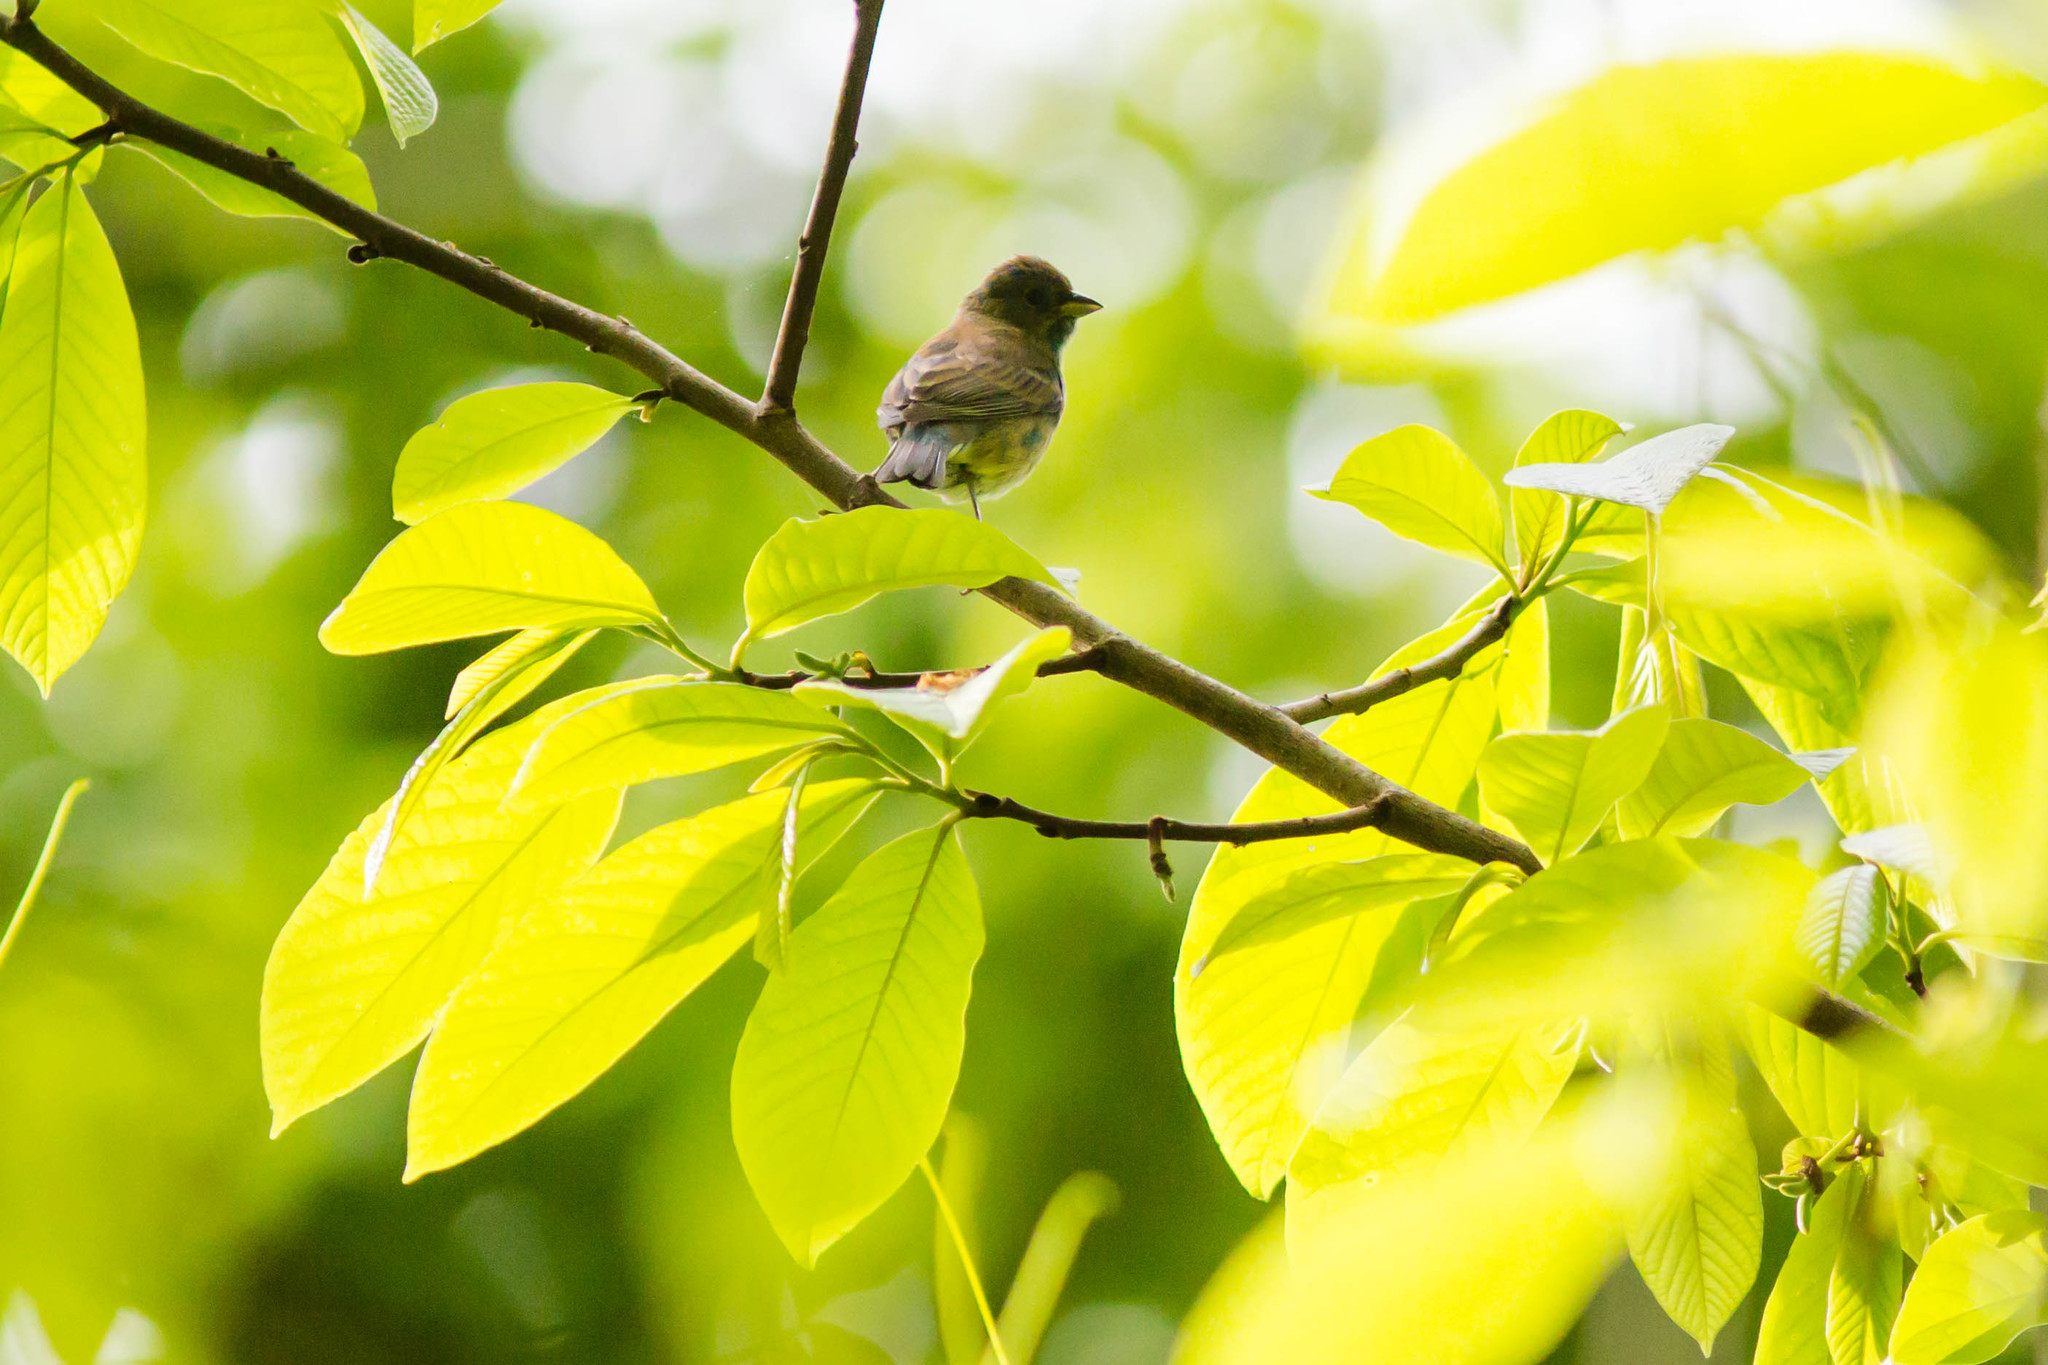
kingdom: Animalia
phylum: Chordata
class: Aves
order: Passeriformes
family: Cardinalidae
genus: Passerina
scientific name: Passerina cyanea
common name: Indigo bunting
